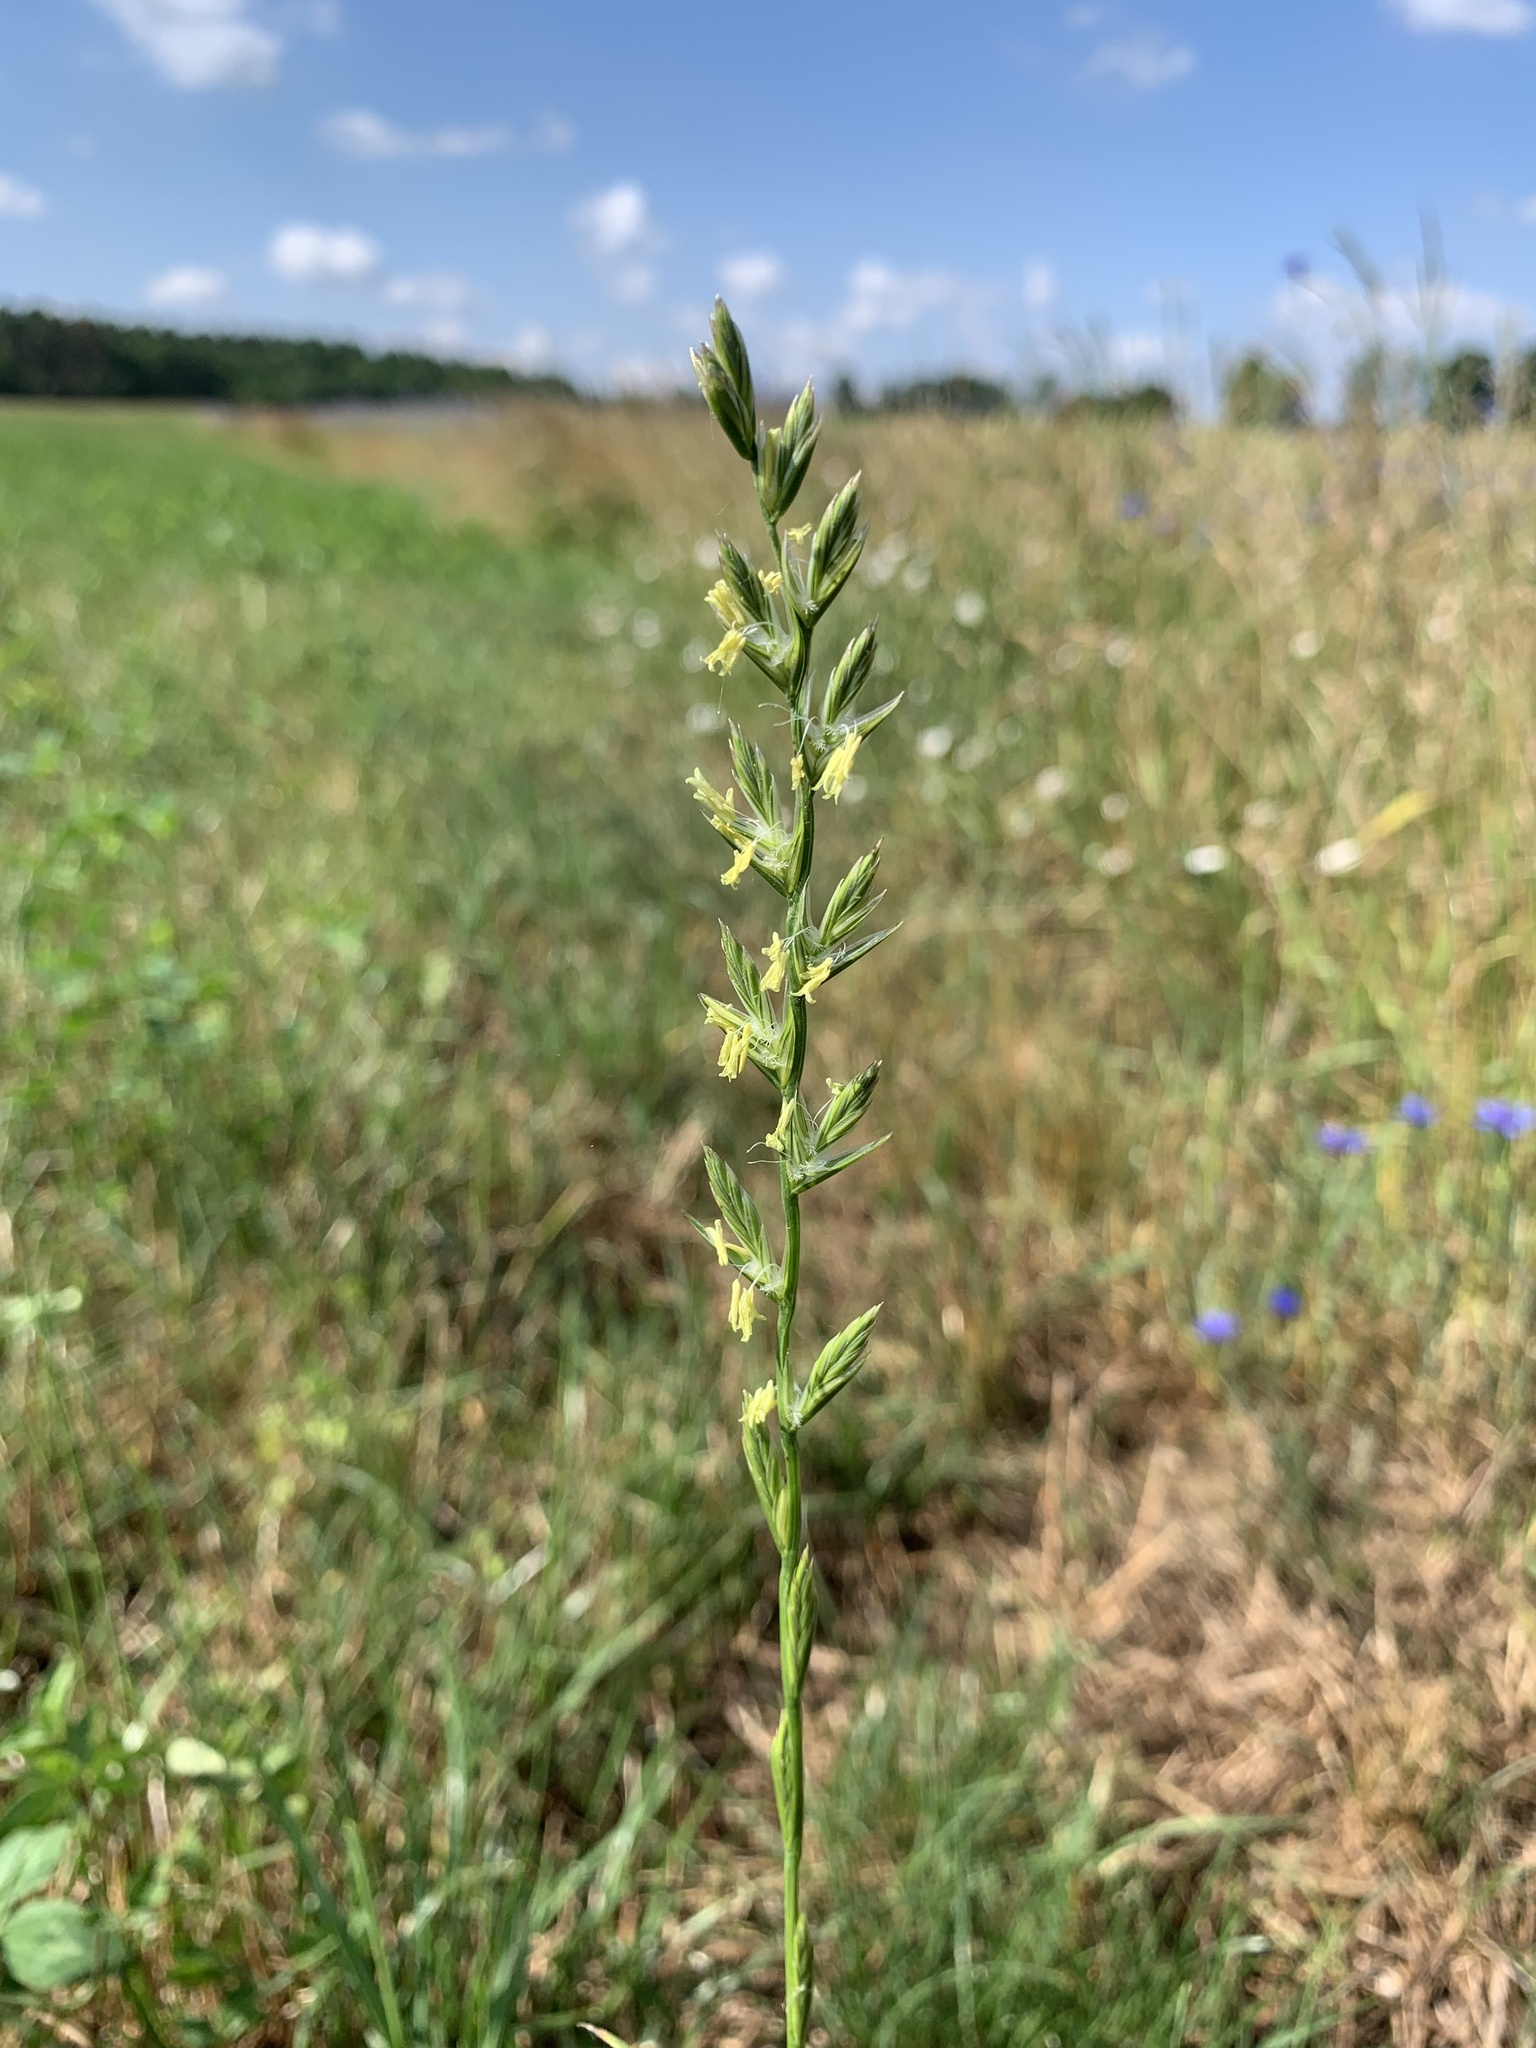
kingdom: Plantae
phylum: Tracheophyta
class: Liliopsida
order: Poales
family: Poaceae
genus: Lolium
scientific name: Lolium perenne
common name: Perennial ryegrass
